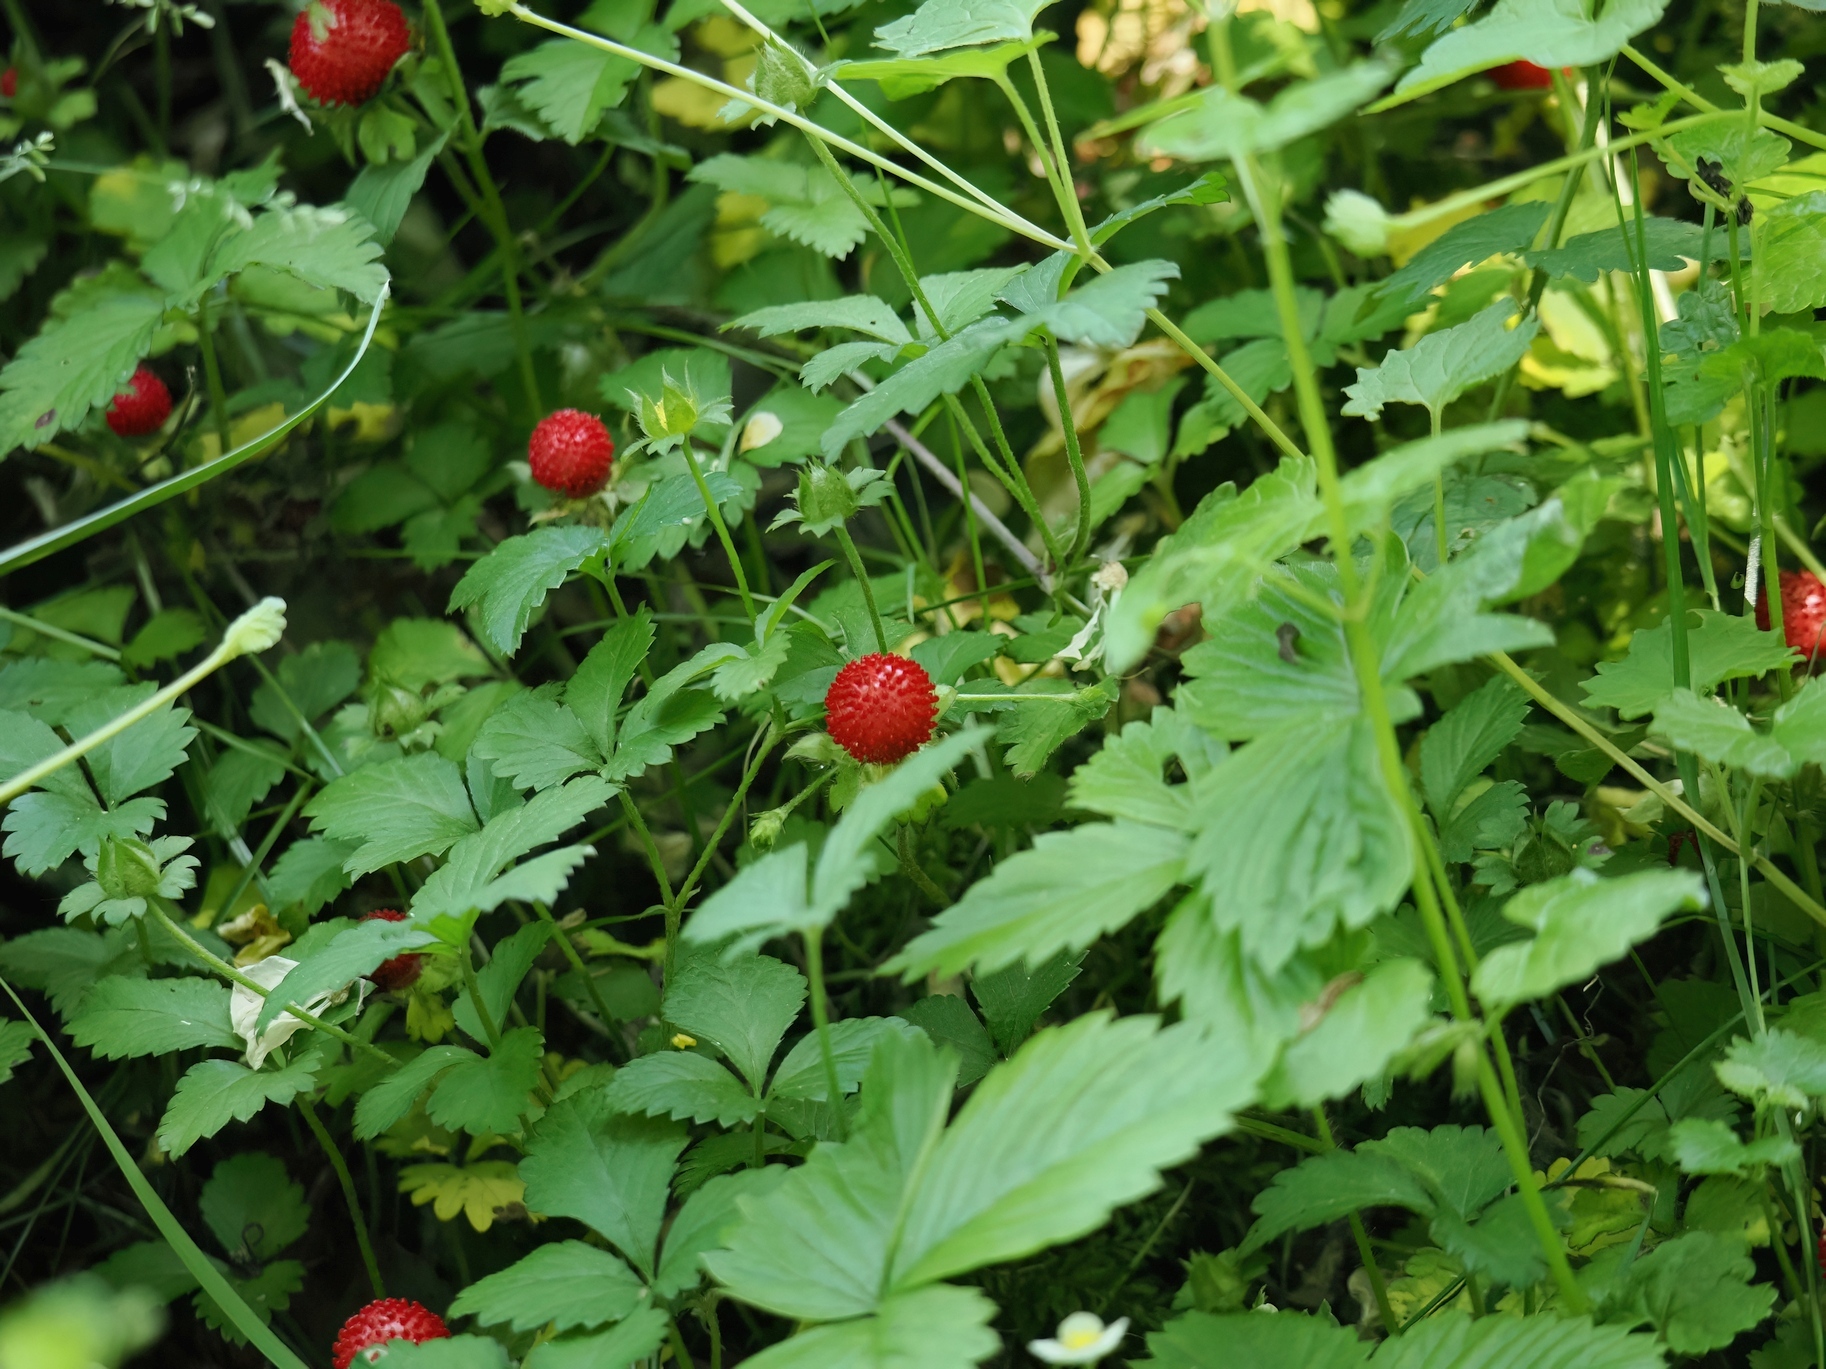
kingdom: Plantae
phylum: Tracheophyta
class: Magnoliopsida
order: Rosales
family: Rosaceae
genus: Potentilla
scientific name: Potentilla indica
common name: Yellow-flowered strawberry
